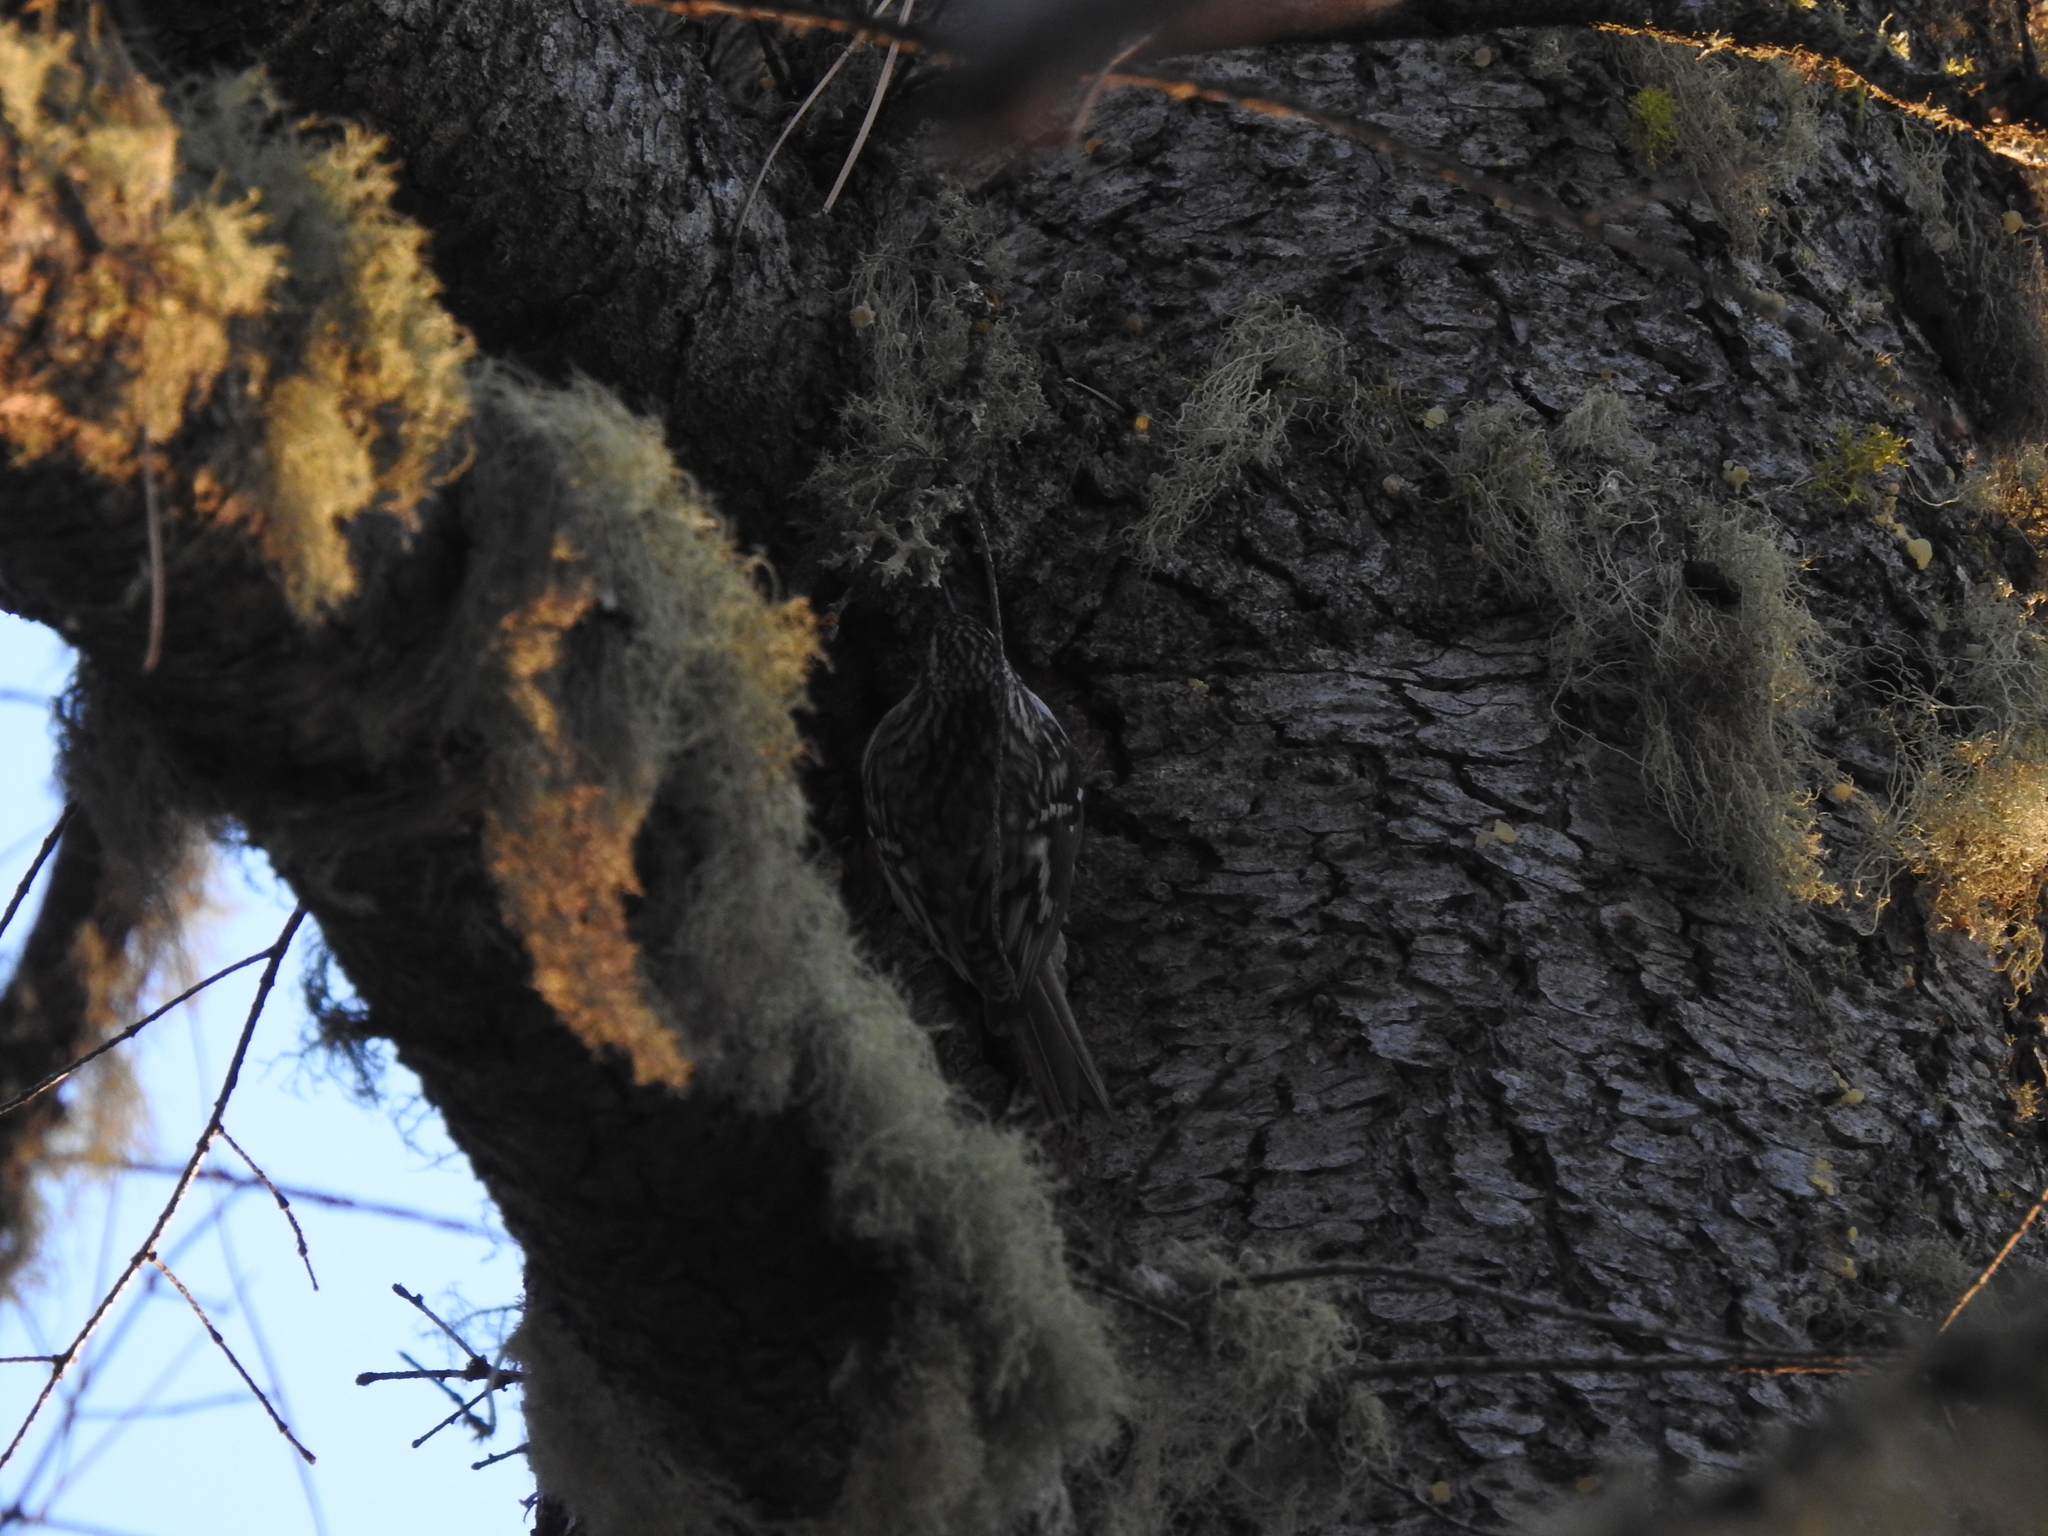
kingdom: Animalia
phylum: Chordata
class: Aves
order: Passeriformes
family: Certhiidae
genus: Certhia
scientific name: Certhia americana
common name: Brown creeper
